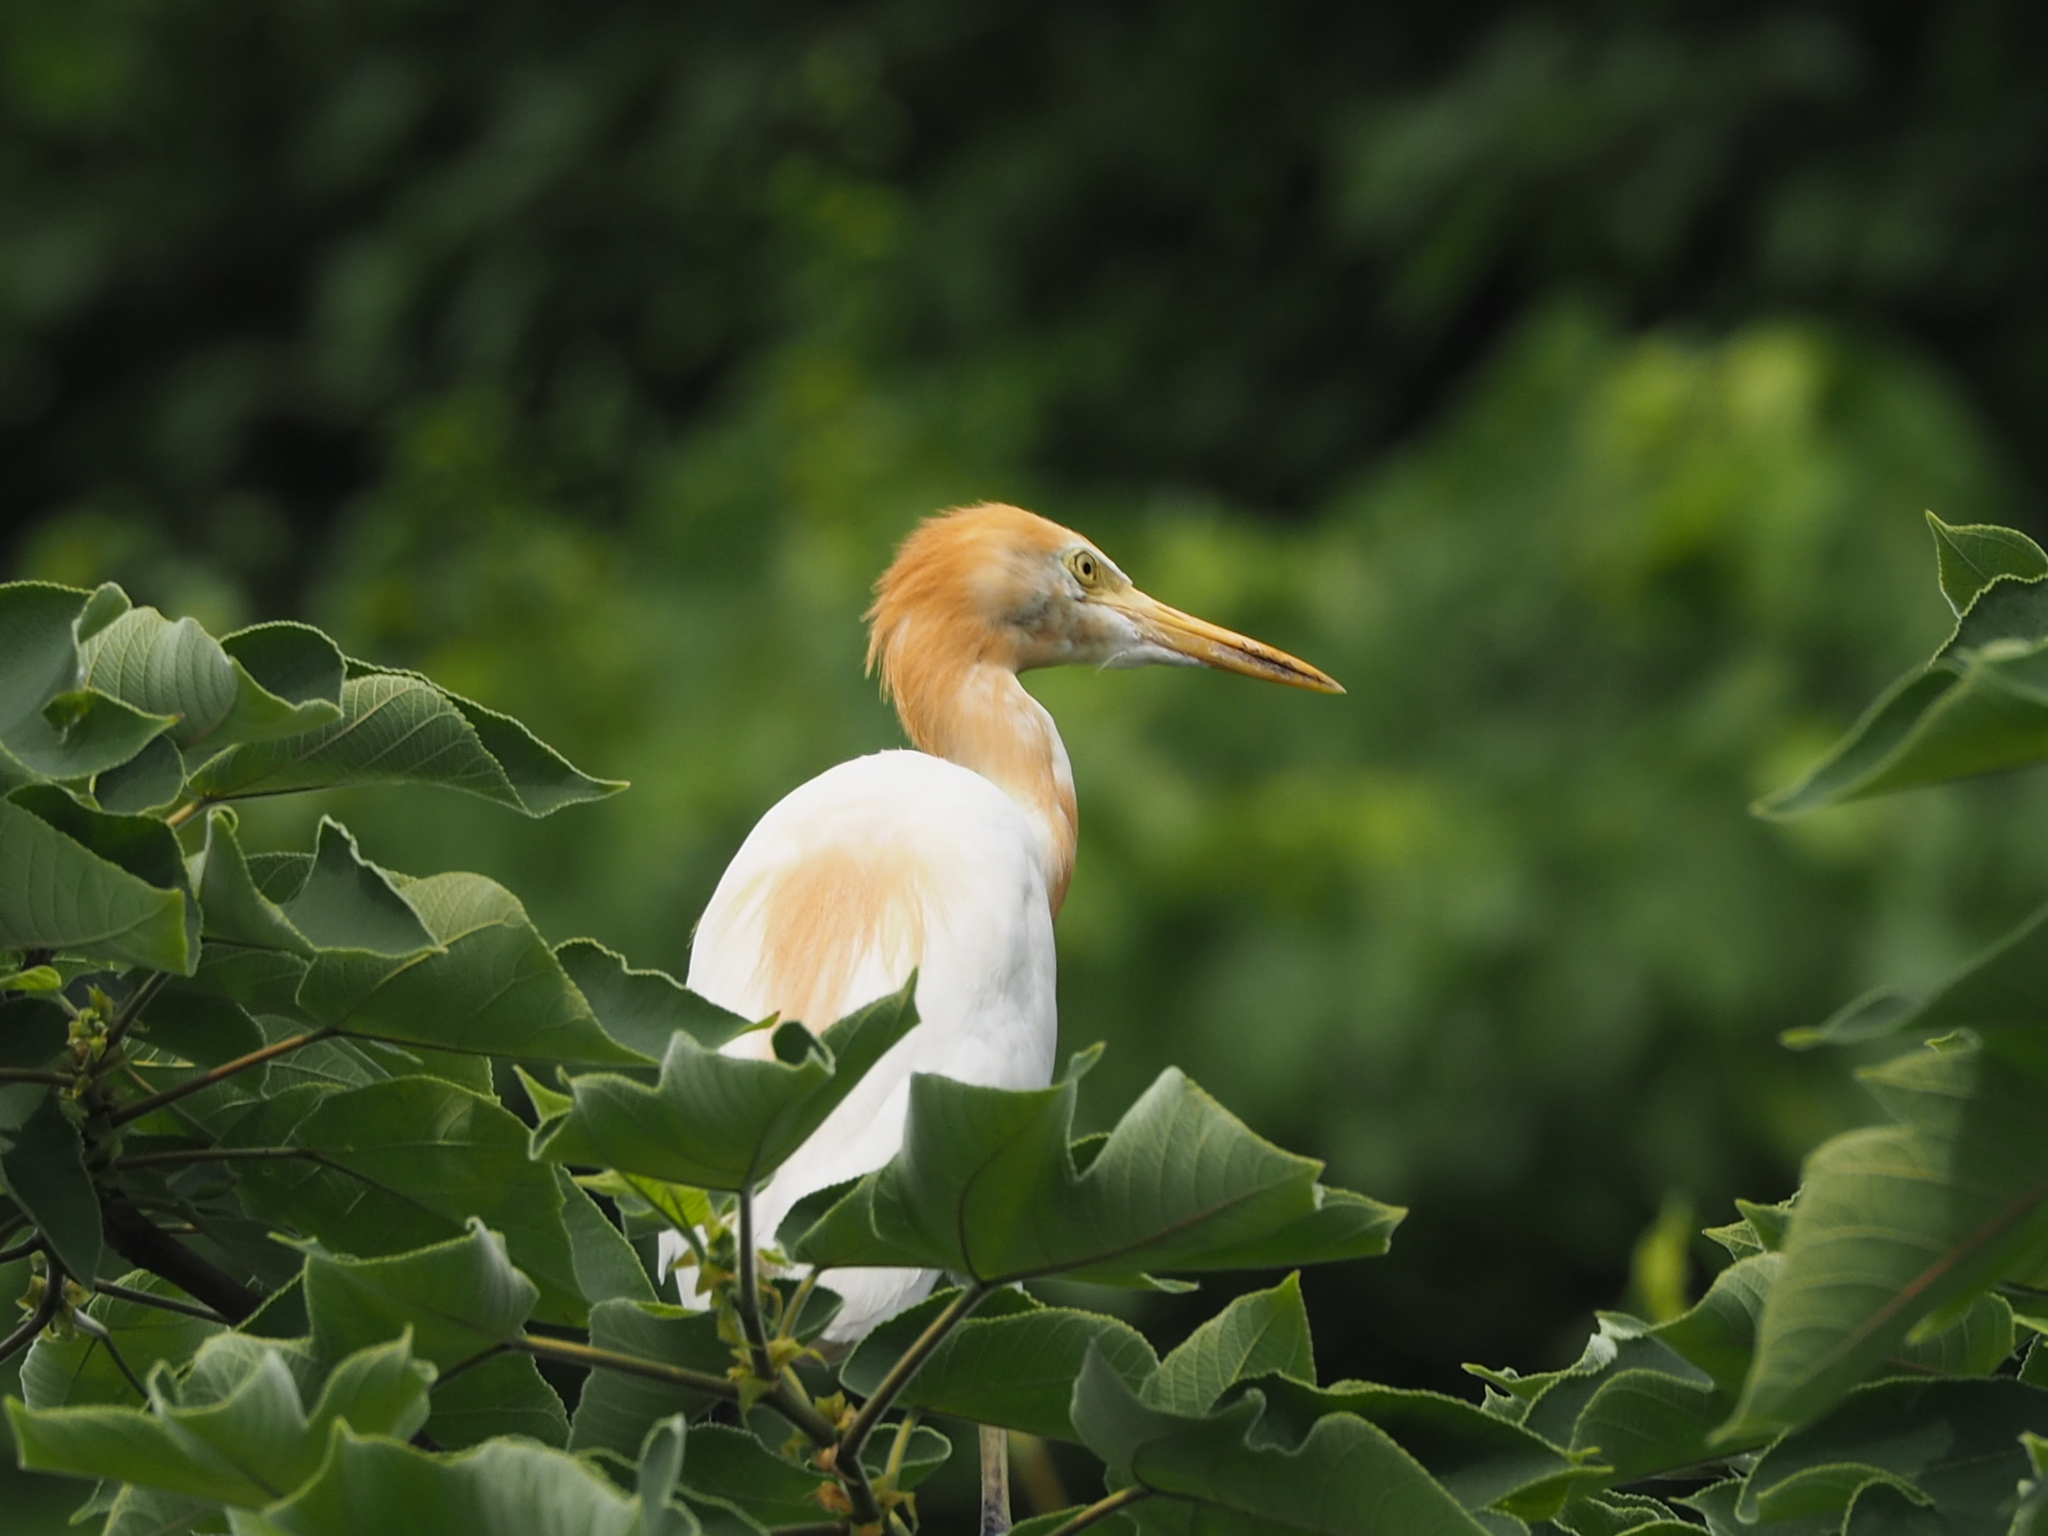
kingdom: Animalia
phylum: Chordata
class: Aves
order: Pelecaniformes
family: Ardeidae
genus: Bubulcus
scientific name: Bubulcus coromandus
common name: Eastern cattle egret
